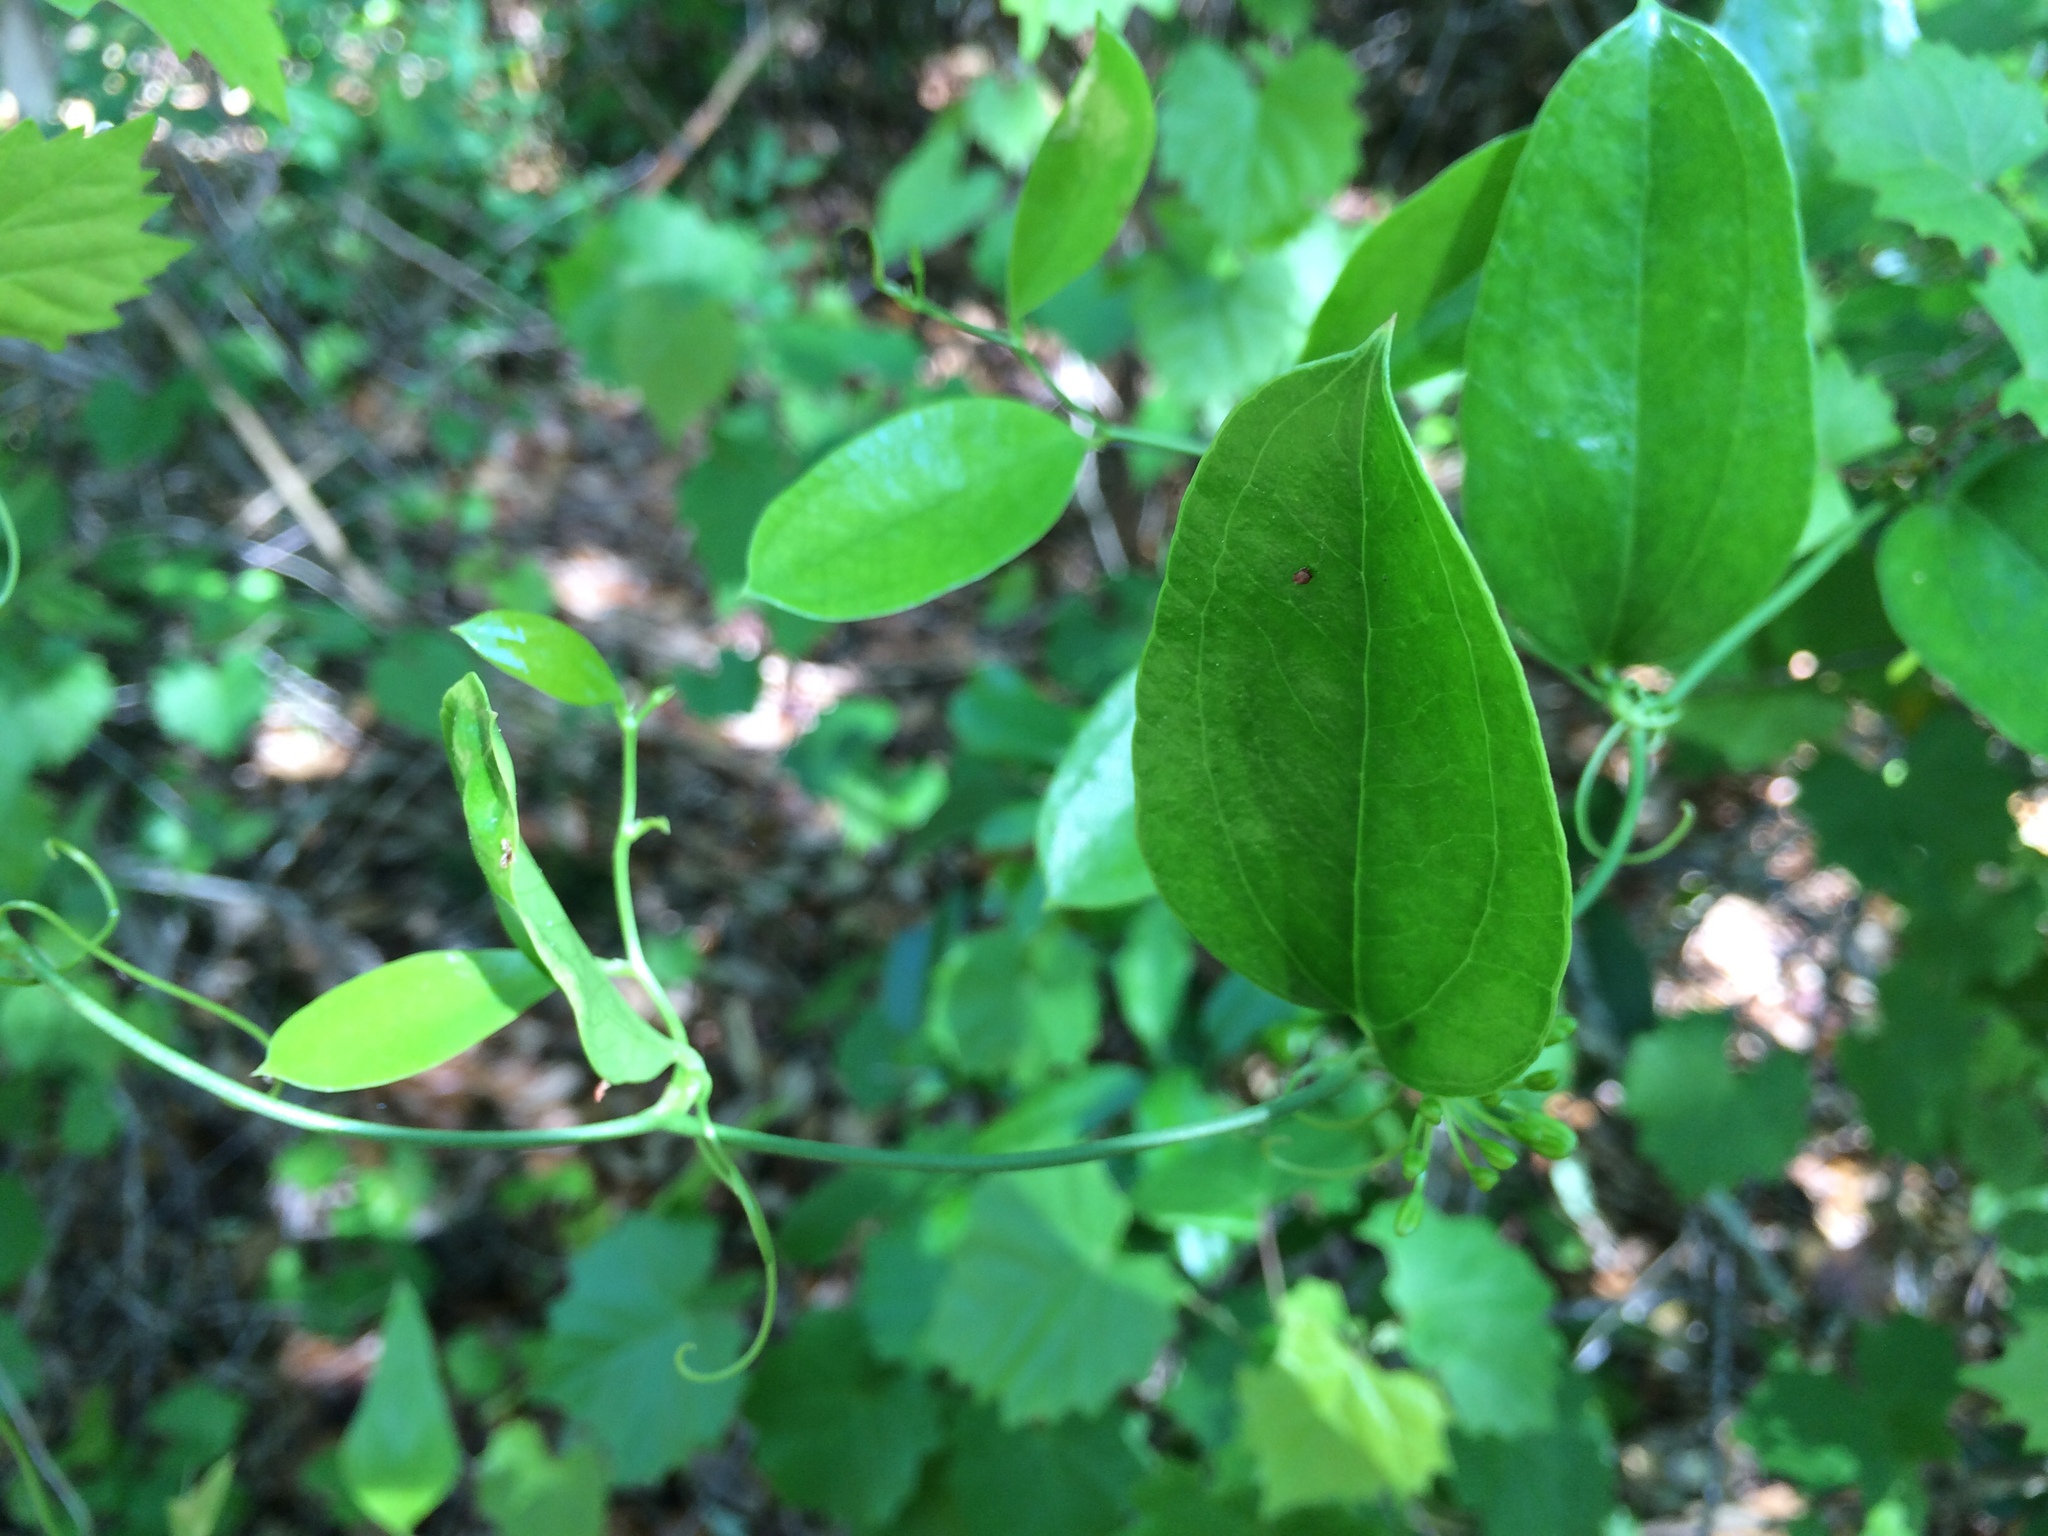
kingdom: Plantae
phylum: Tracheophyta
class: Liliopsida
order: Liliales
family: Smilacaceae
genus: Smilax
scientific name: Smilax laurifolia
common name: Bamboovine
